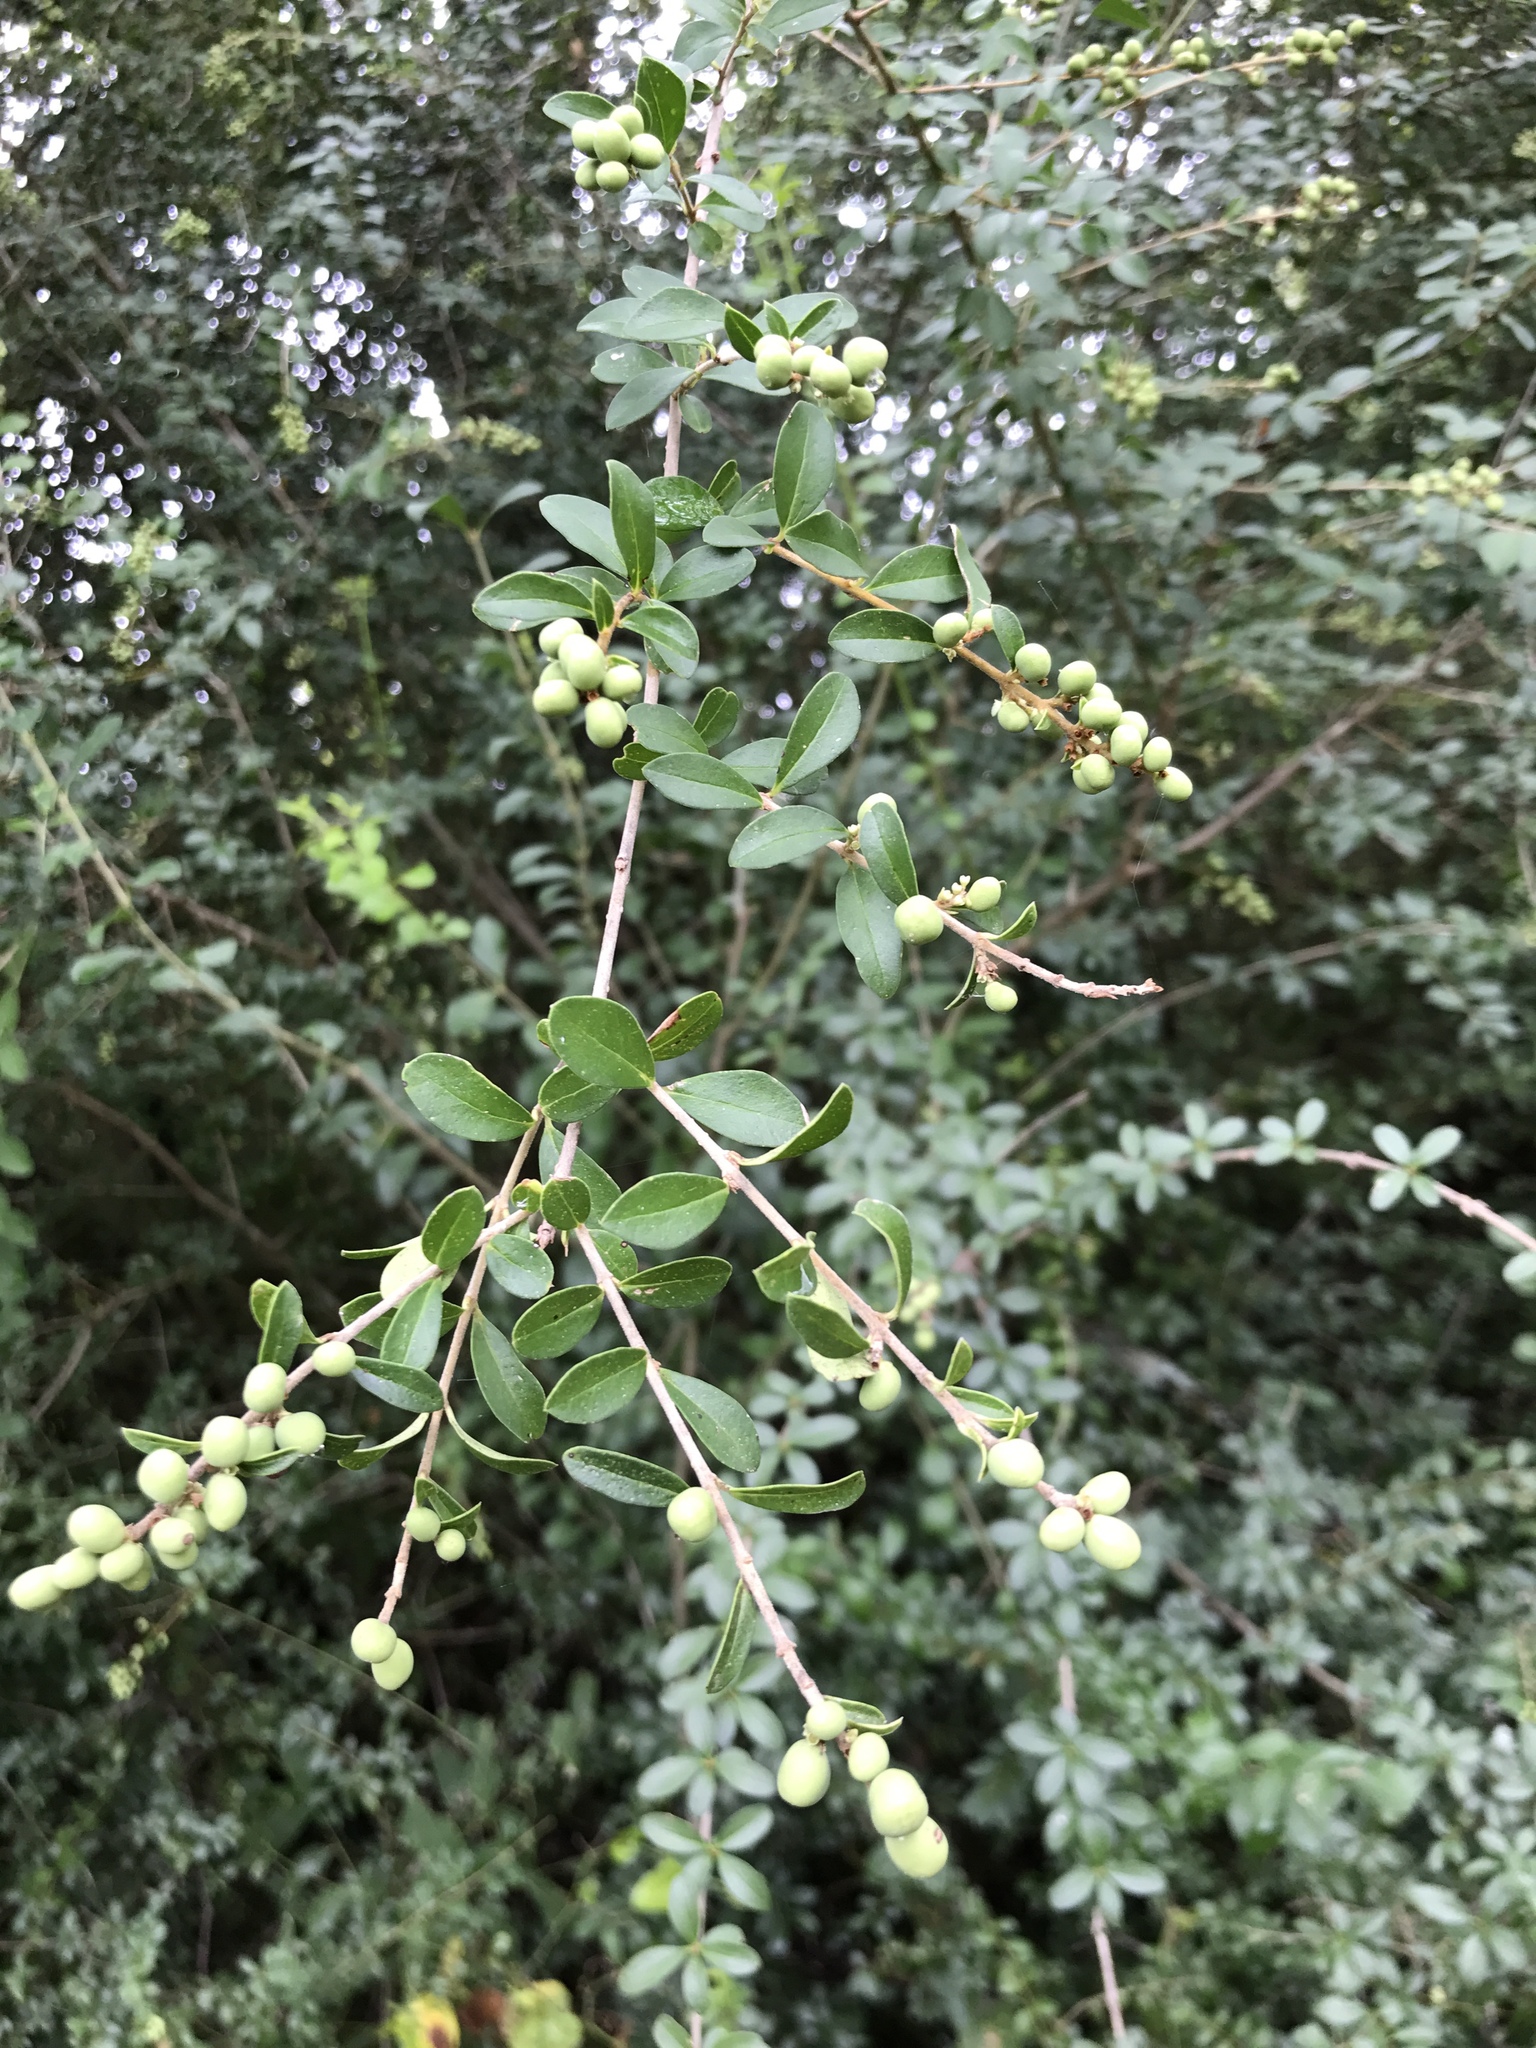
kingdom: Plantae
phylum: Tracheophyta
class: Magnoliopsida
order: Lamiales
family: Oleaceae
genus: Ligustrum
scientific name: Ligustrum quihoui
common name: Waxyleaf privet
